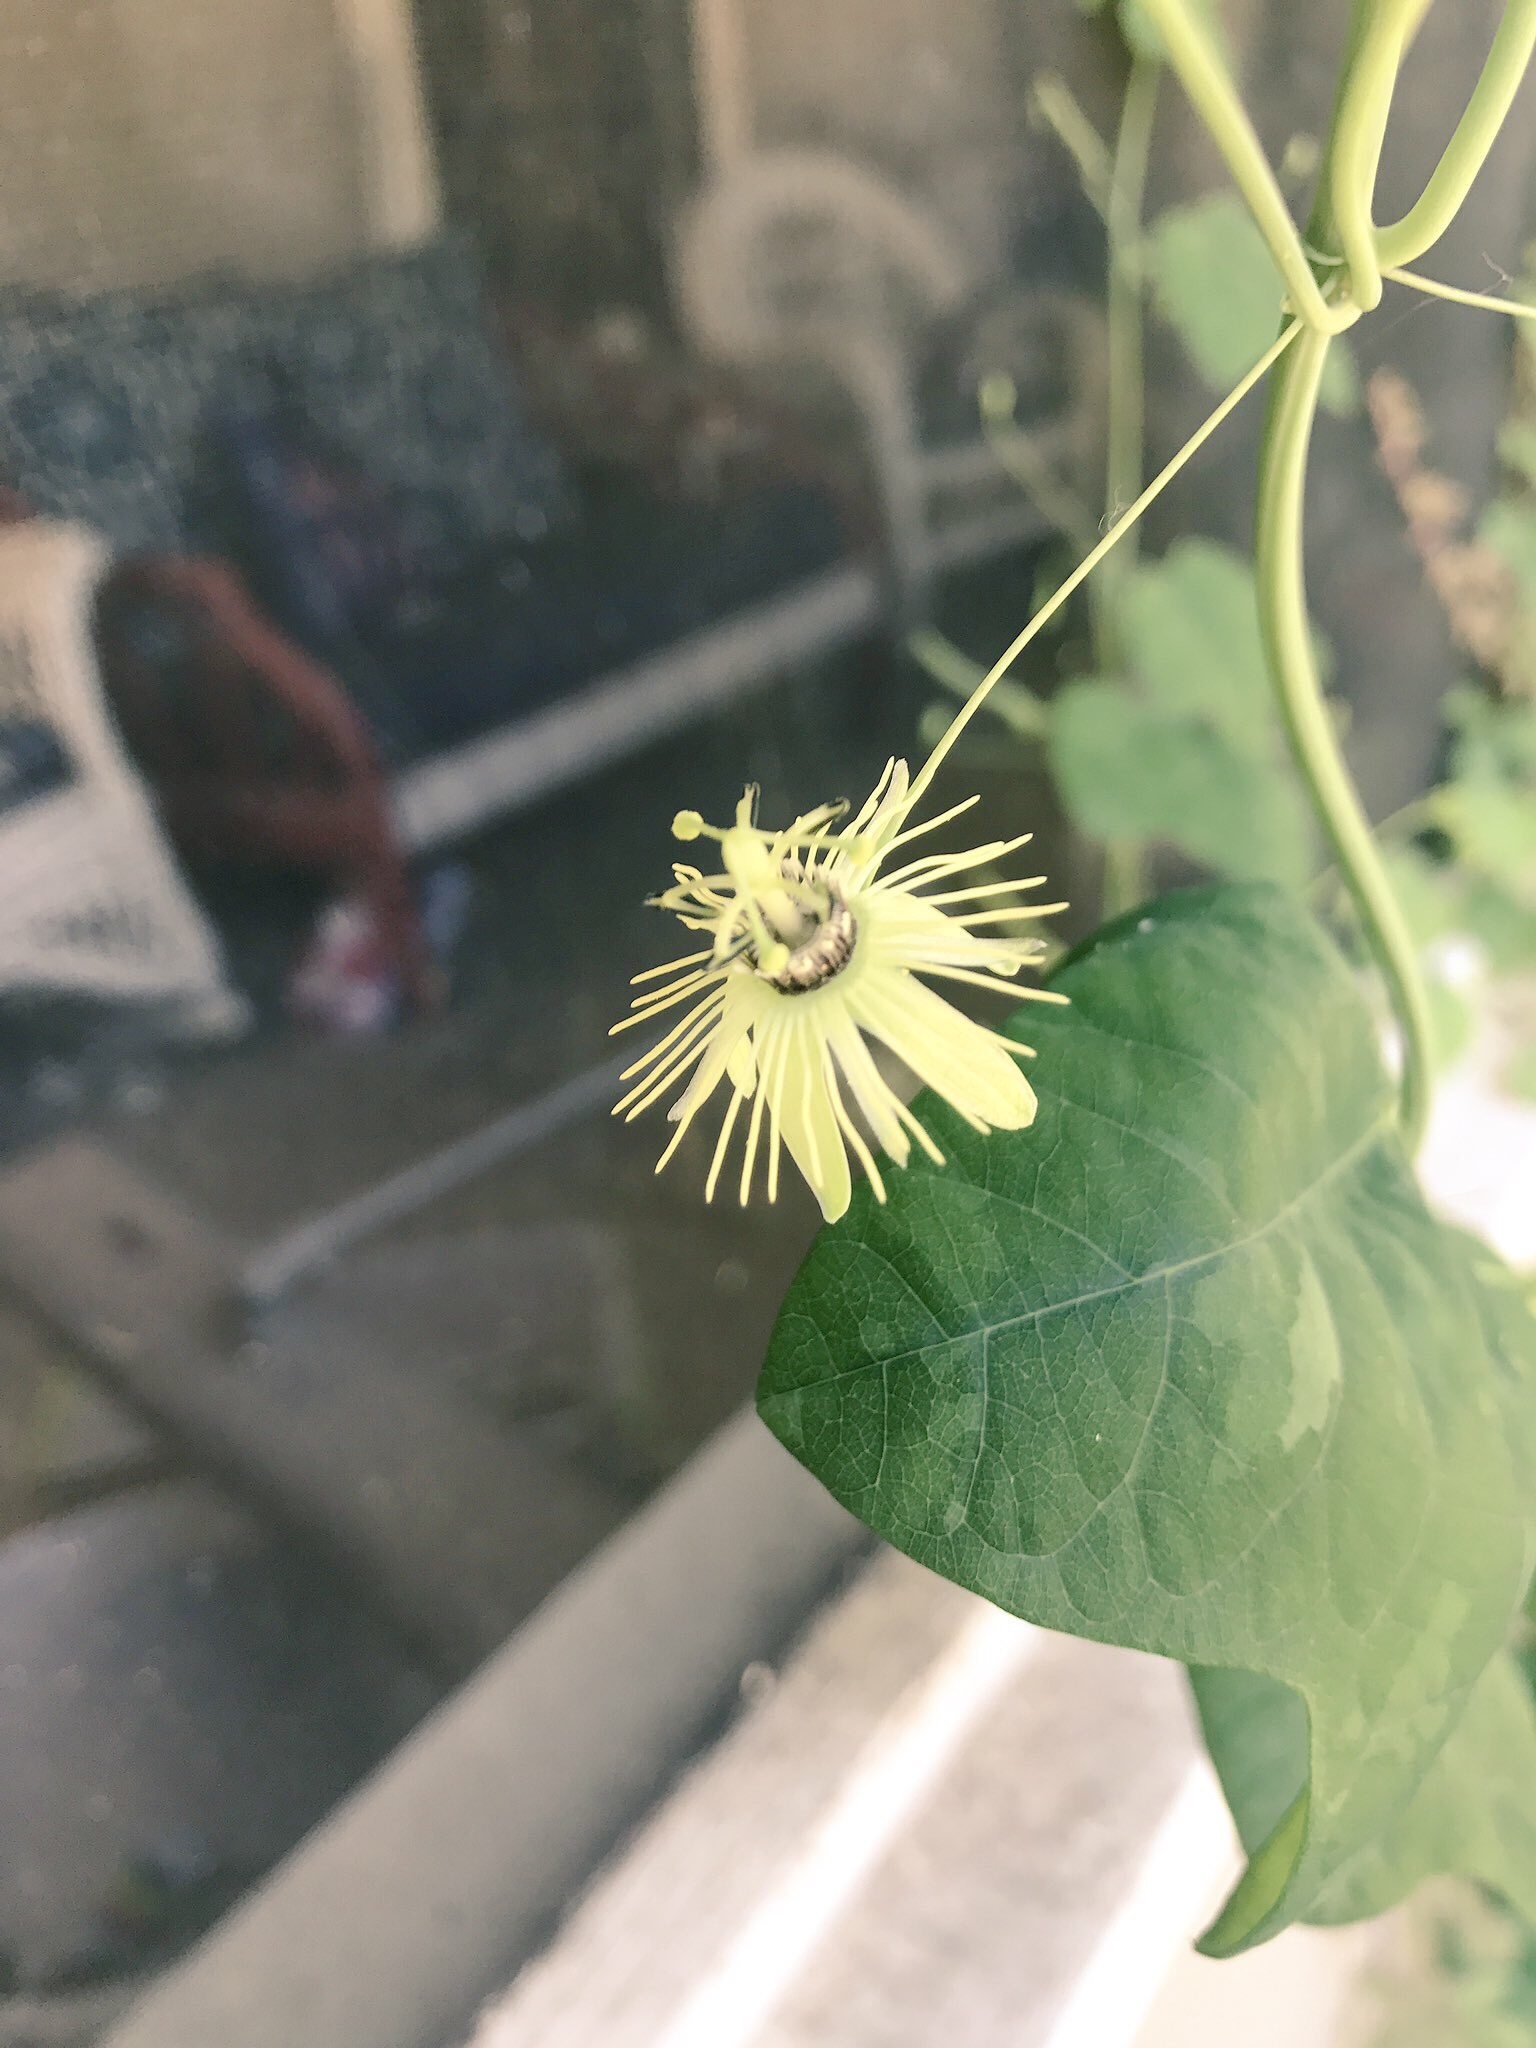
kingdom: Plantae
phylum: Tracheophyta
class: Magnoliopsida
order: Malpighiales
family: Passifloraceae
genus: Passiflora
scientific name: Passiflora lutea
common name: Yellow passionflower
